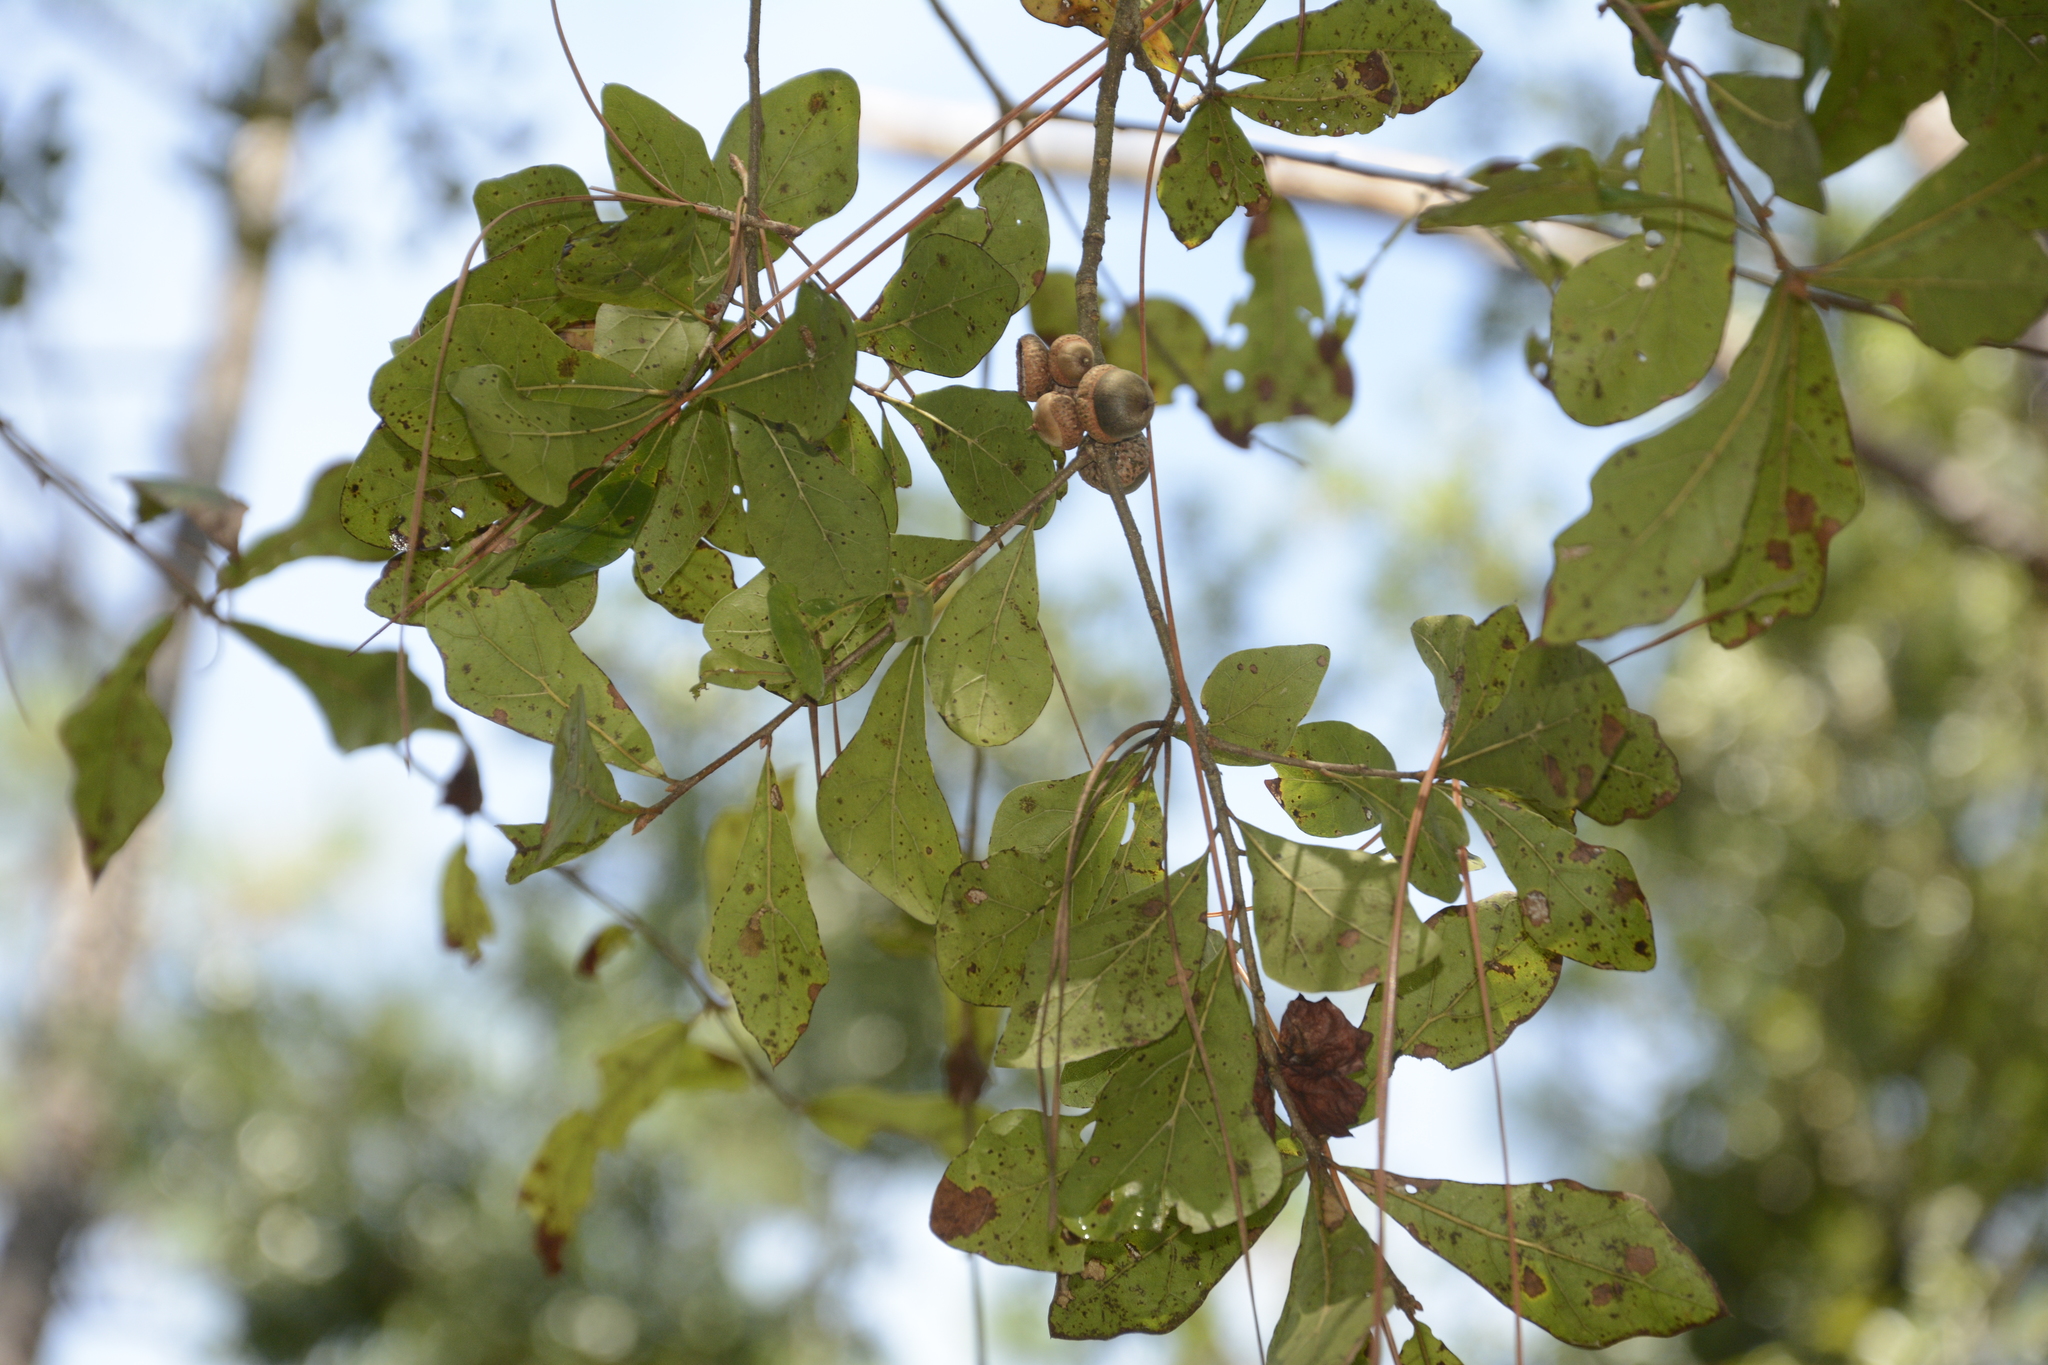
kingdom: Plantae
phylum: Tracheophyta
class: Magnoliopsida
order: Fagales
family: Fagaceae
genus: Quercus
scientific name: Quercus nigra
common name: Water oak
